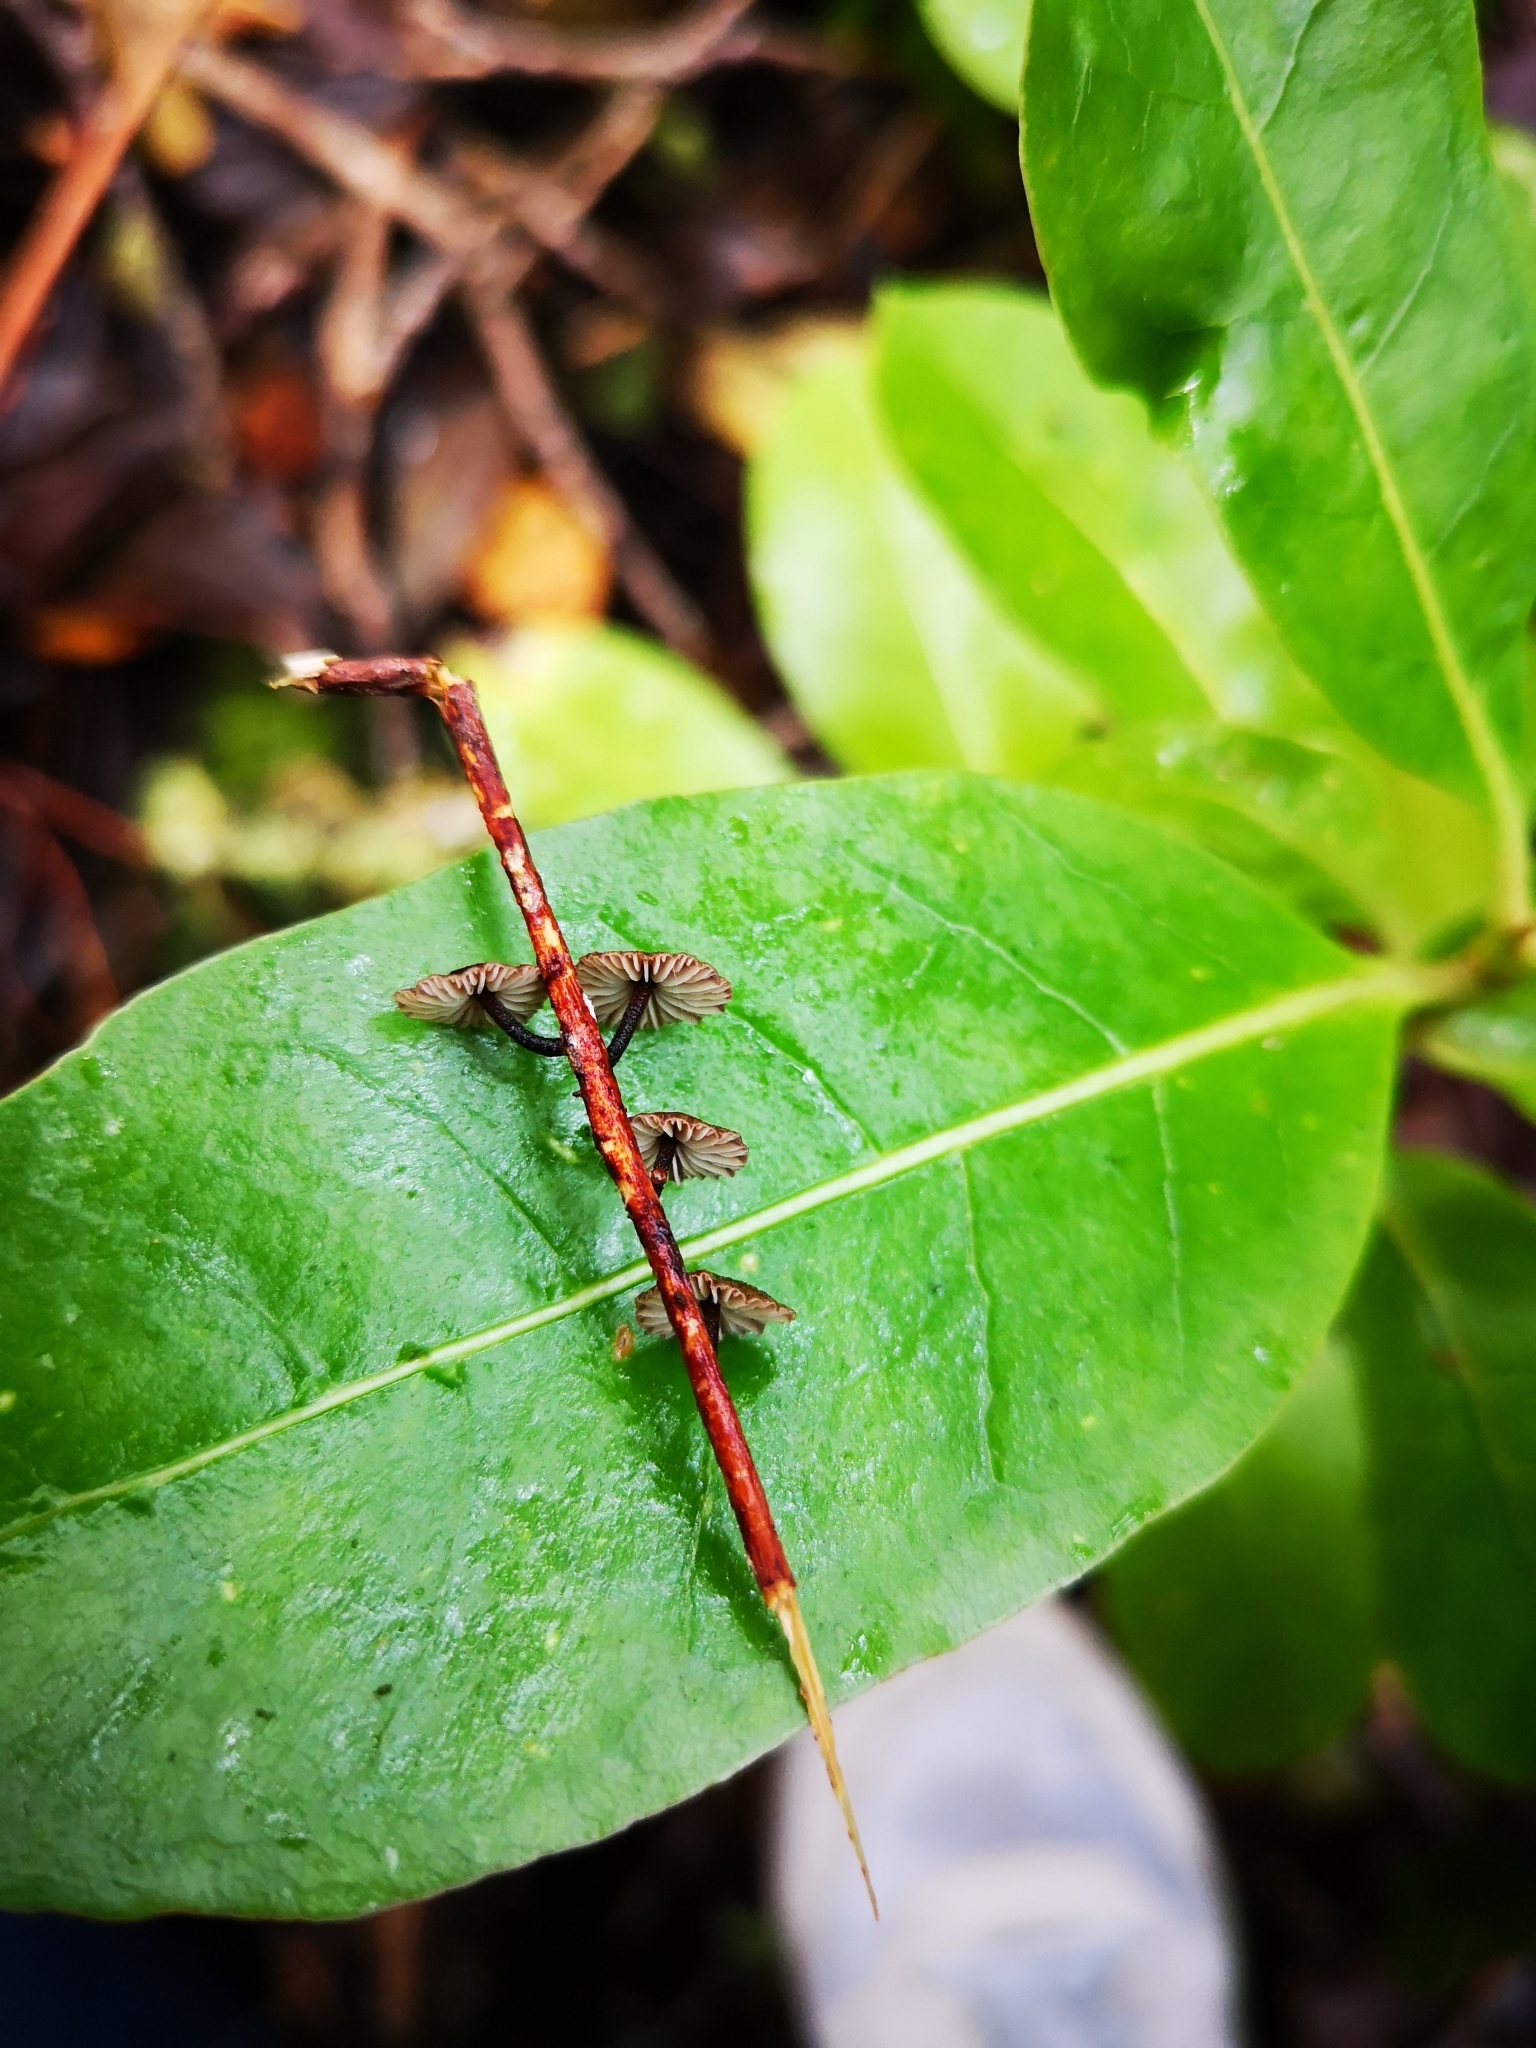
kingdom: Fungi
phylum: Basidiomycota
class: Agaricomycetes
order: Agaricales
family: Omphalotaceae
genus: Gymnopus
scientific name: Gymnopus ceraceicola
